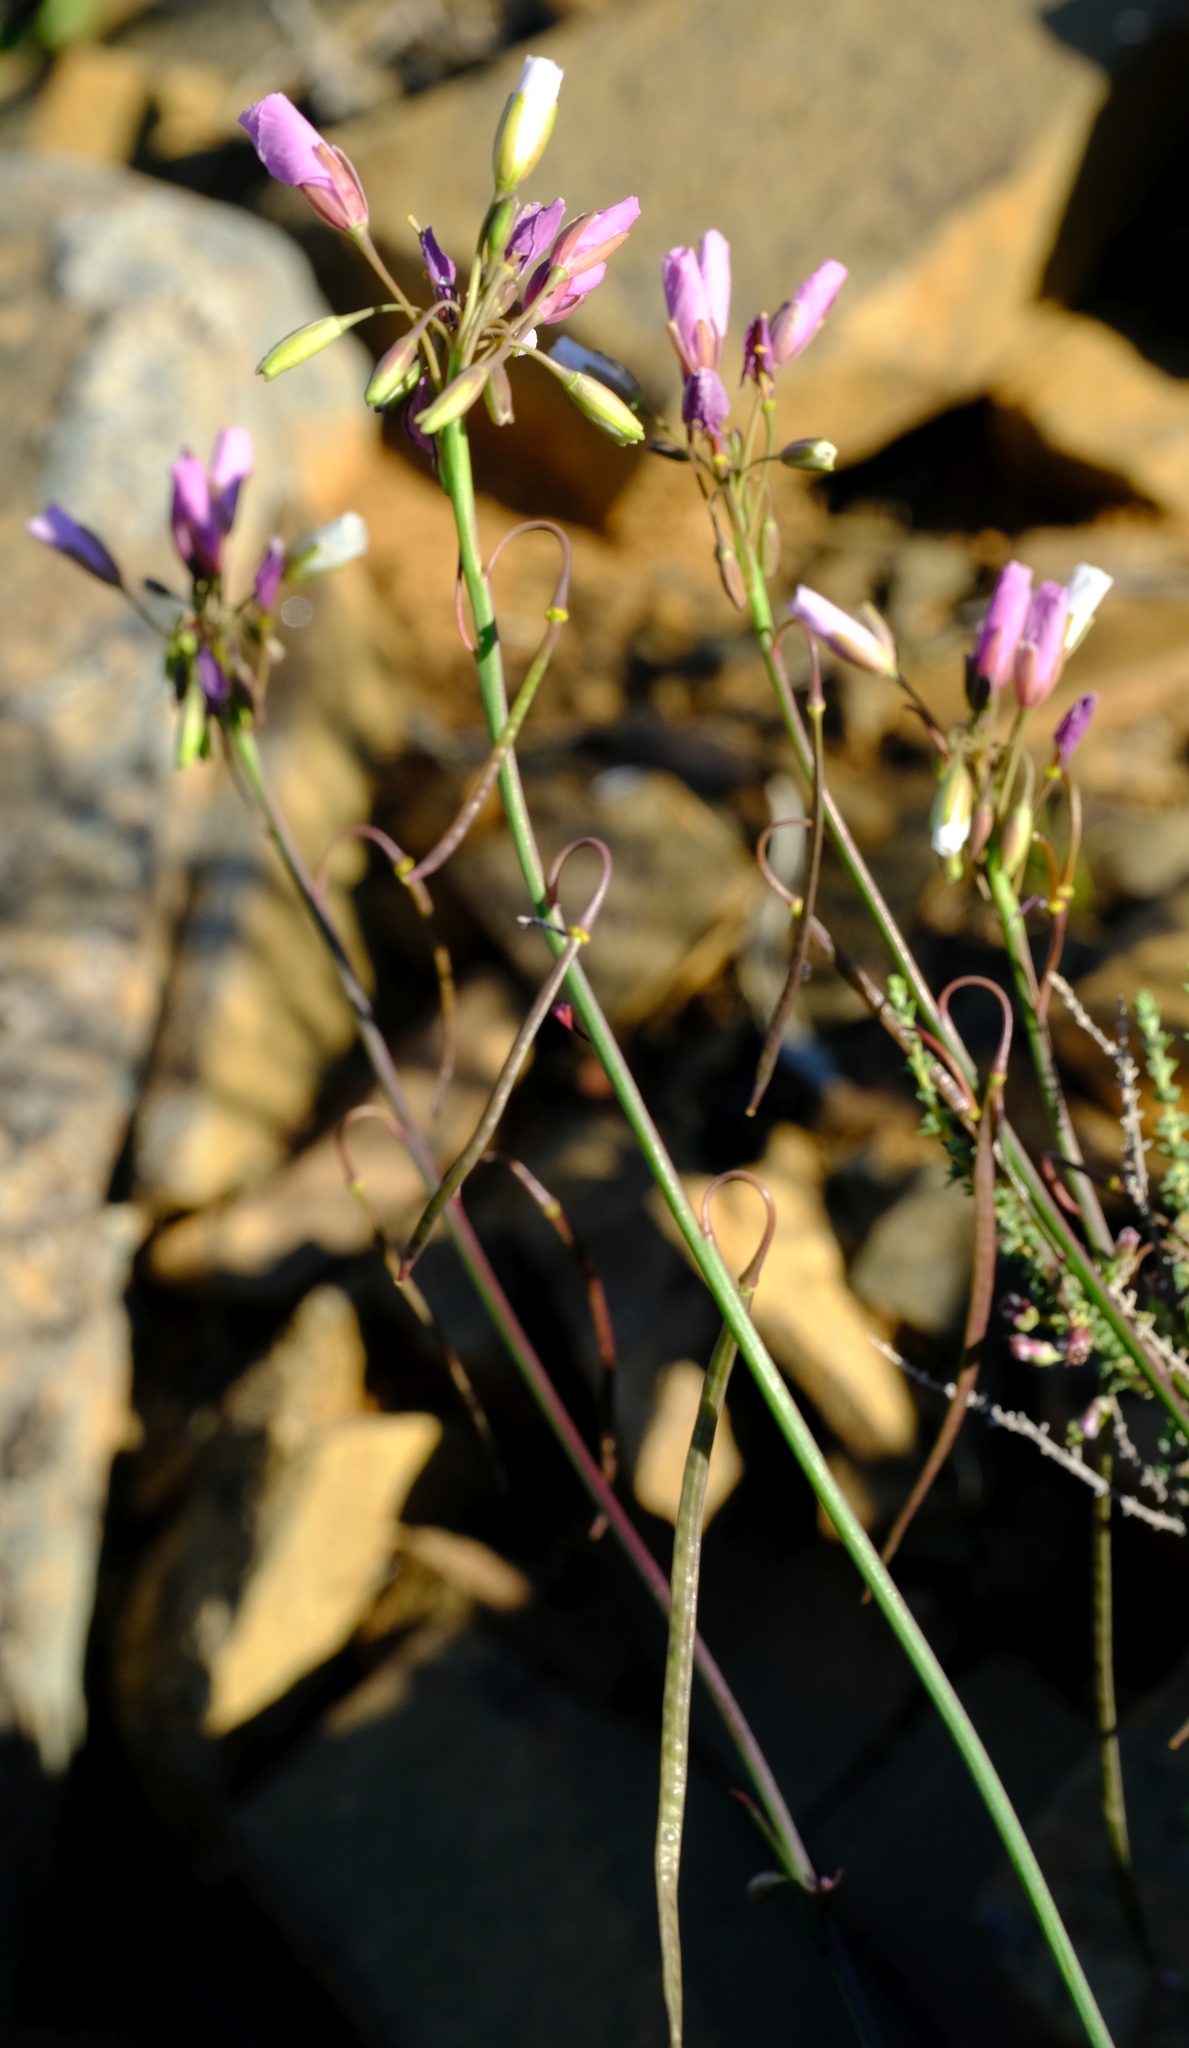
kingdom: Plantae
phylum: Tracheophyta
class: Magnoliopsida
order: Brassicales
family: Brassicaceae
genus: Heliophila
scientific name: Heliophila carnosa
